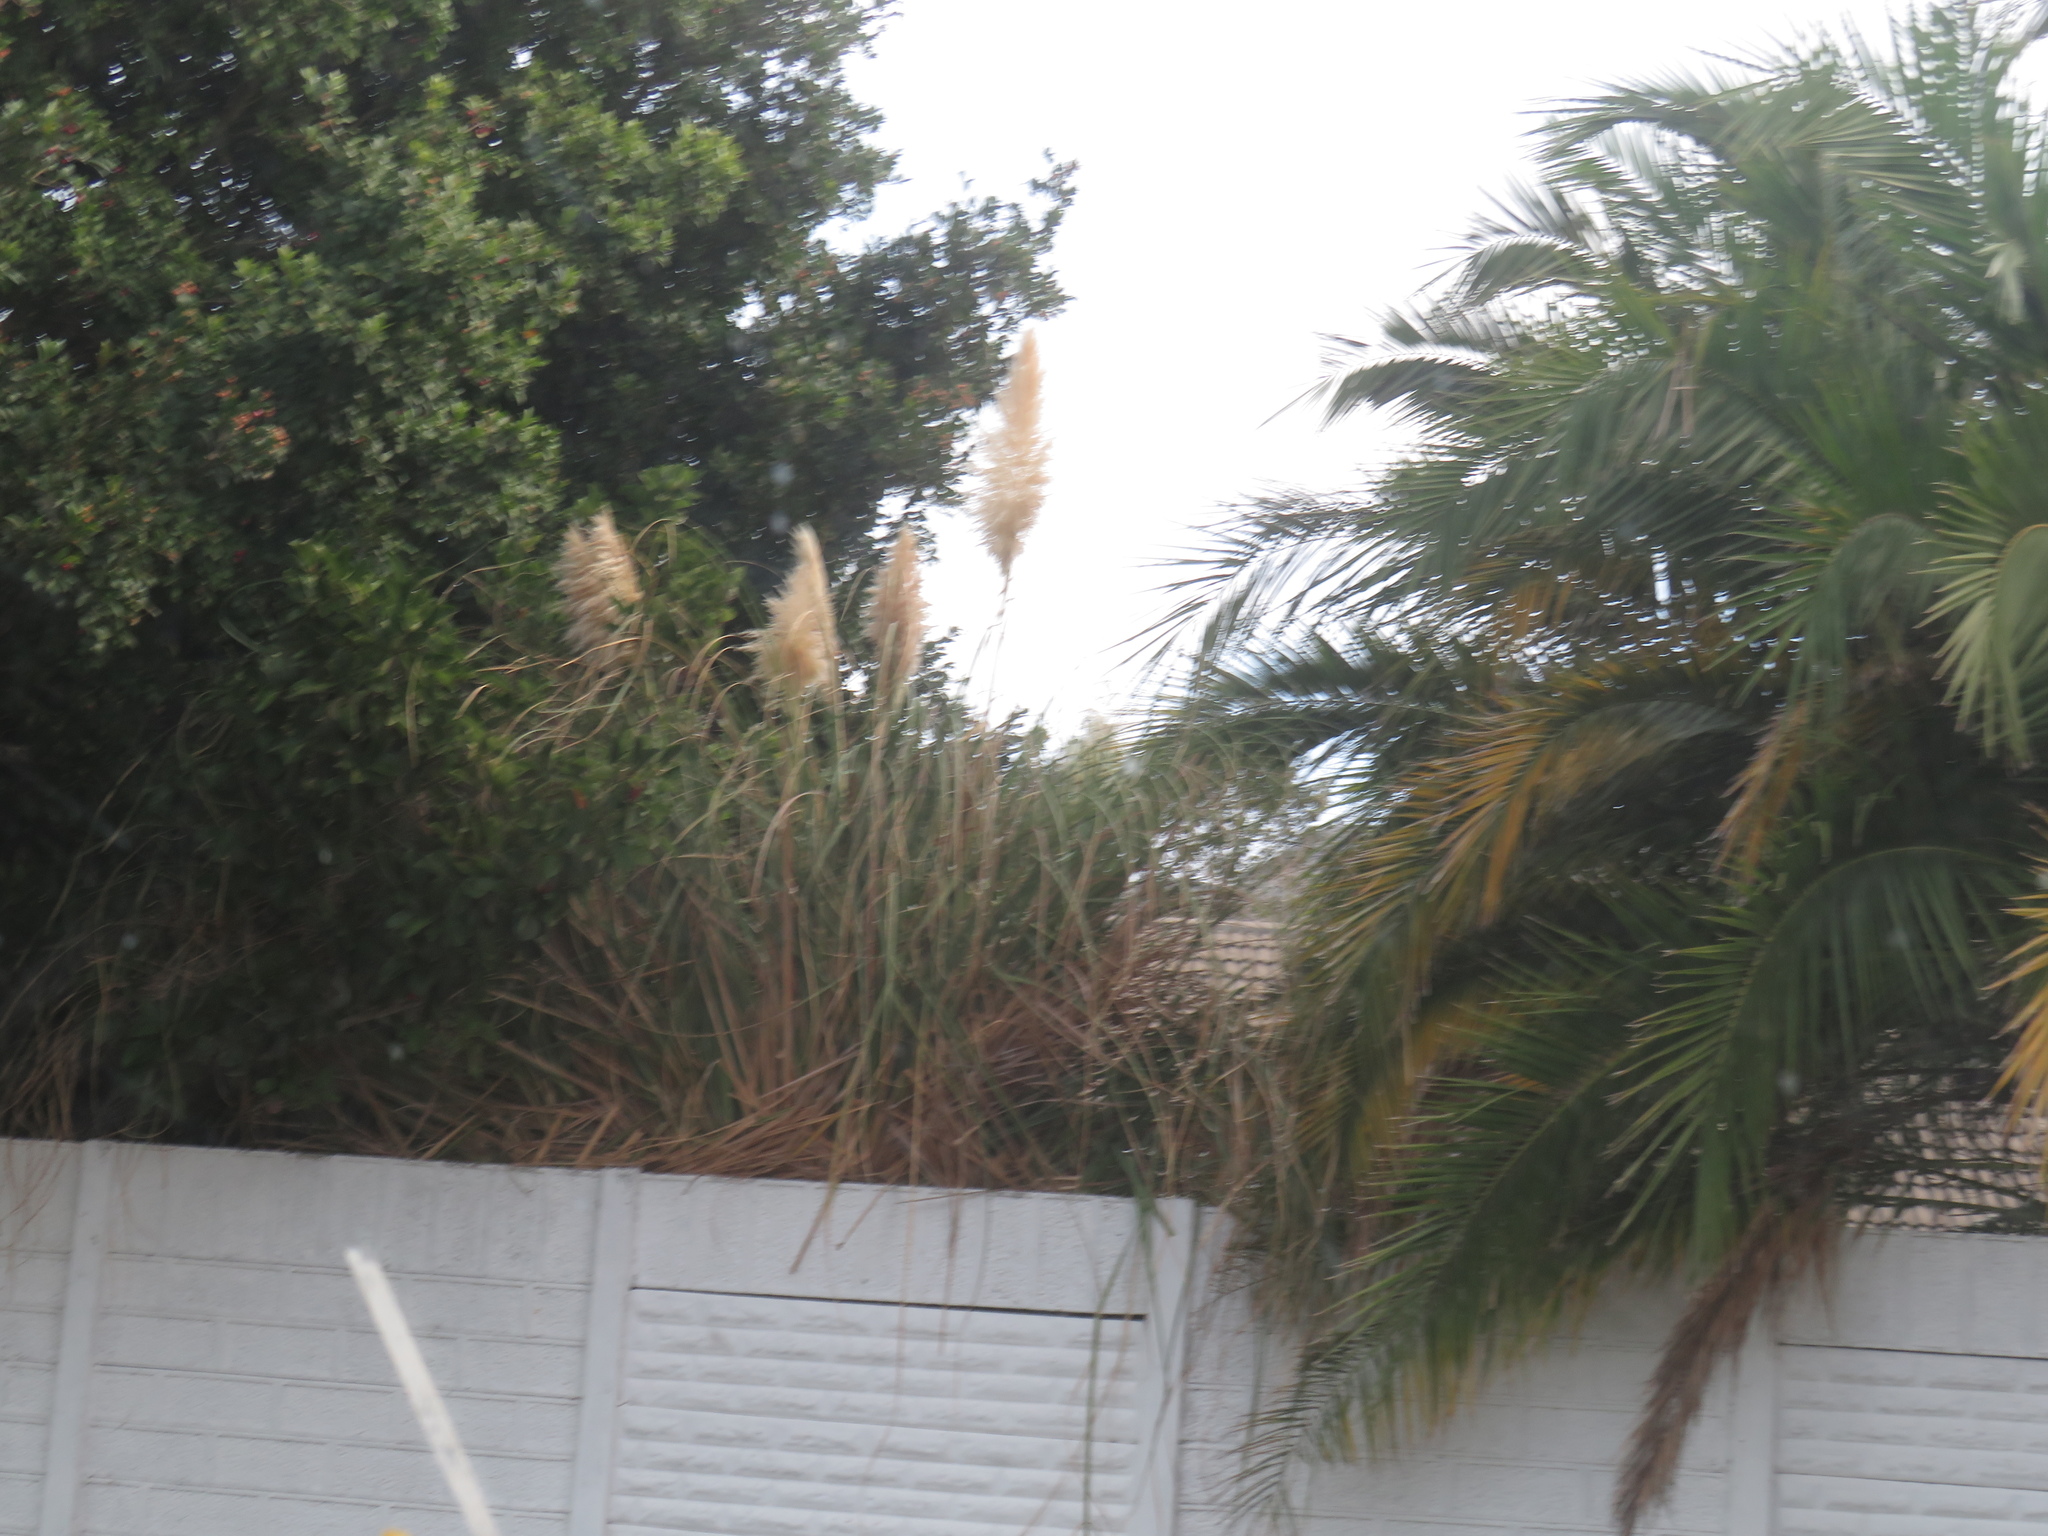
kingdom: Plantae
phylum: Tracheophyta
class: Liliopsida
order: Poales
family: Poaceae
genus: Cortaderia
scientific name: Cortaderia selloana
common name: Uruguayan pampas grass
